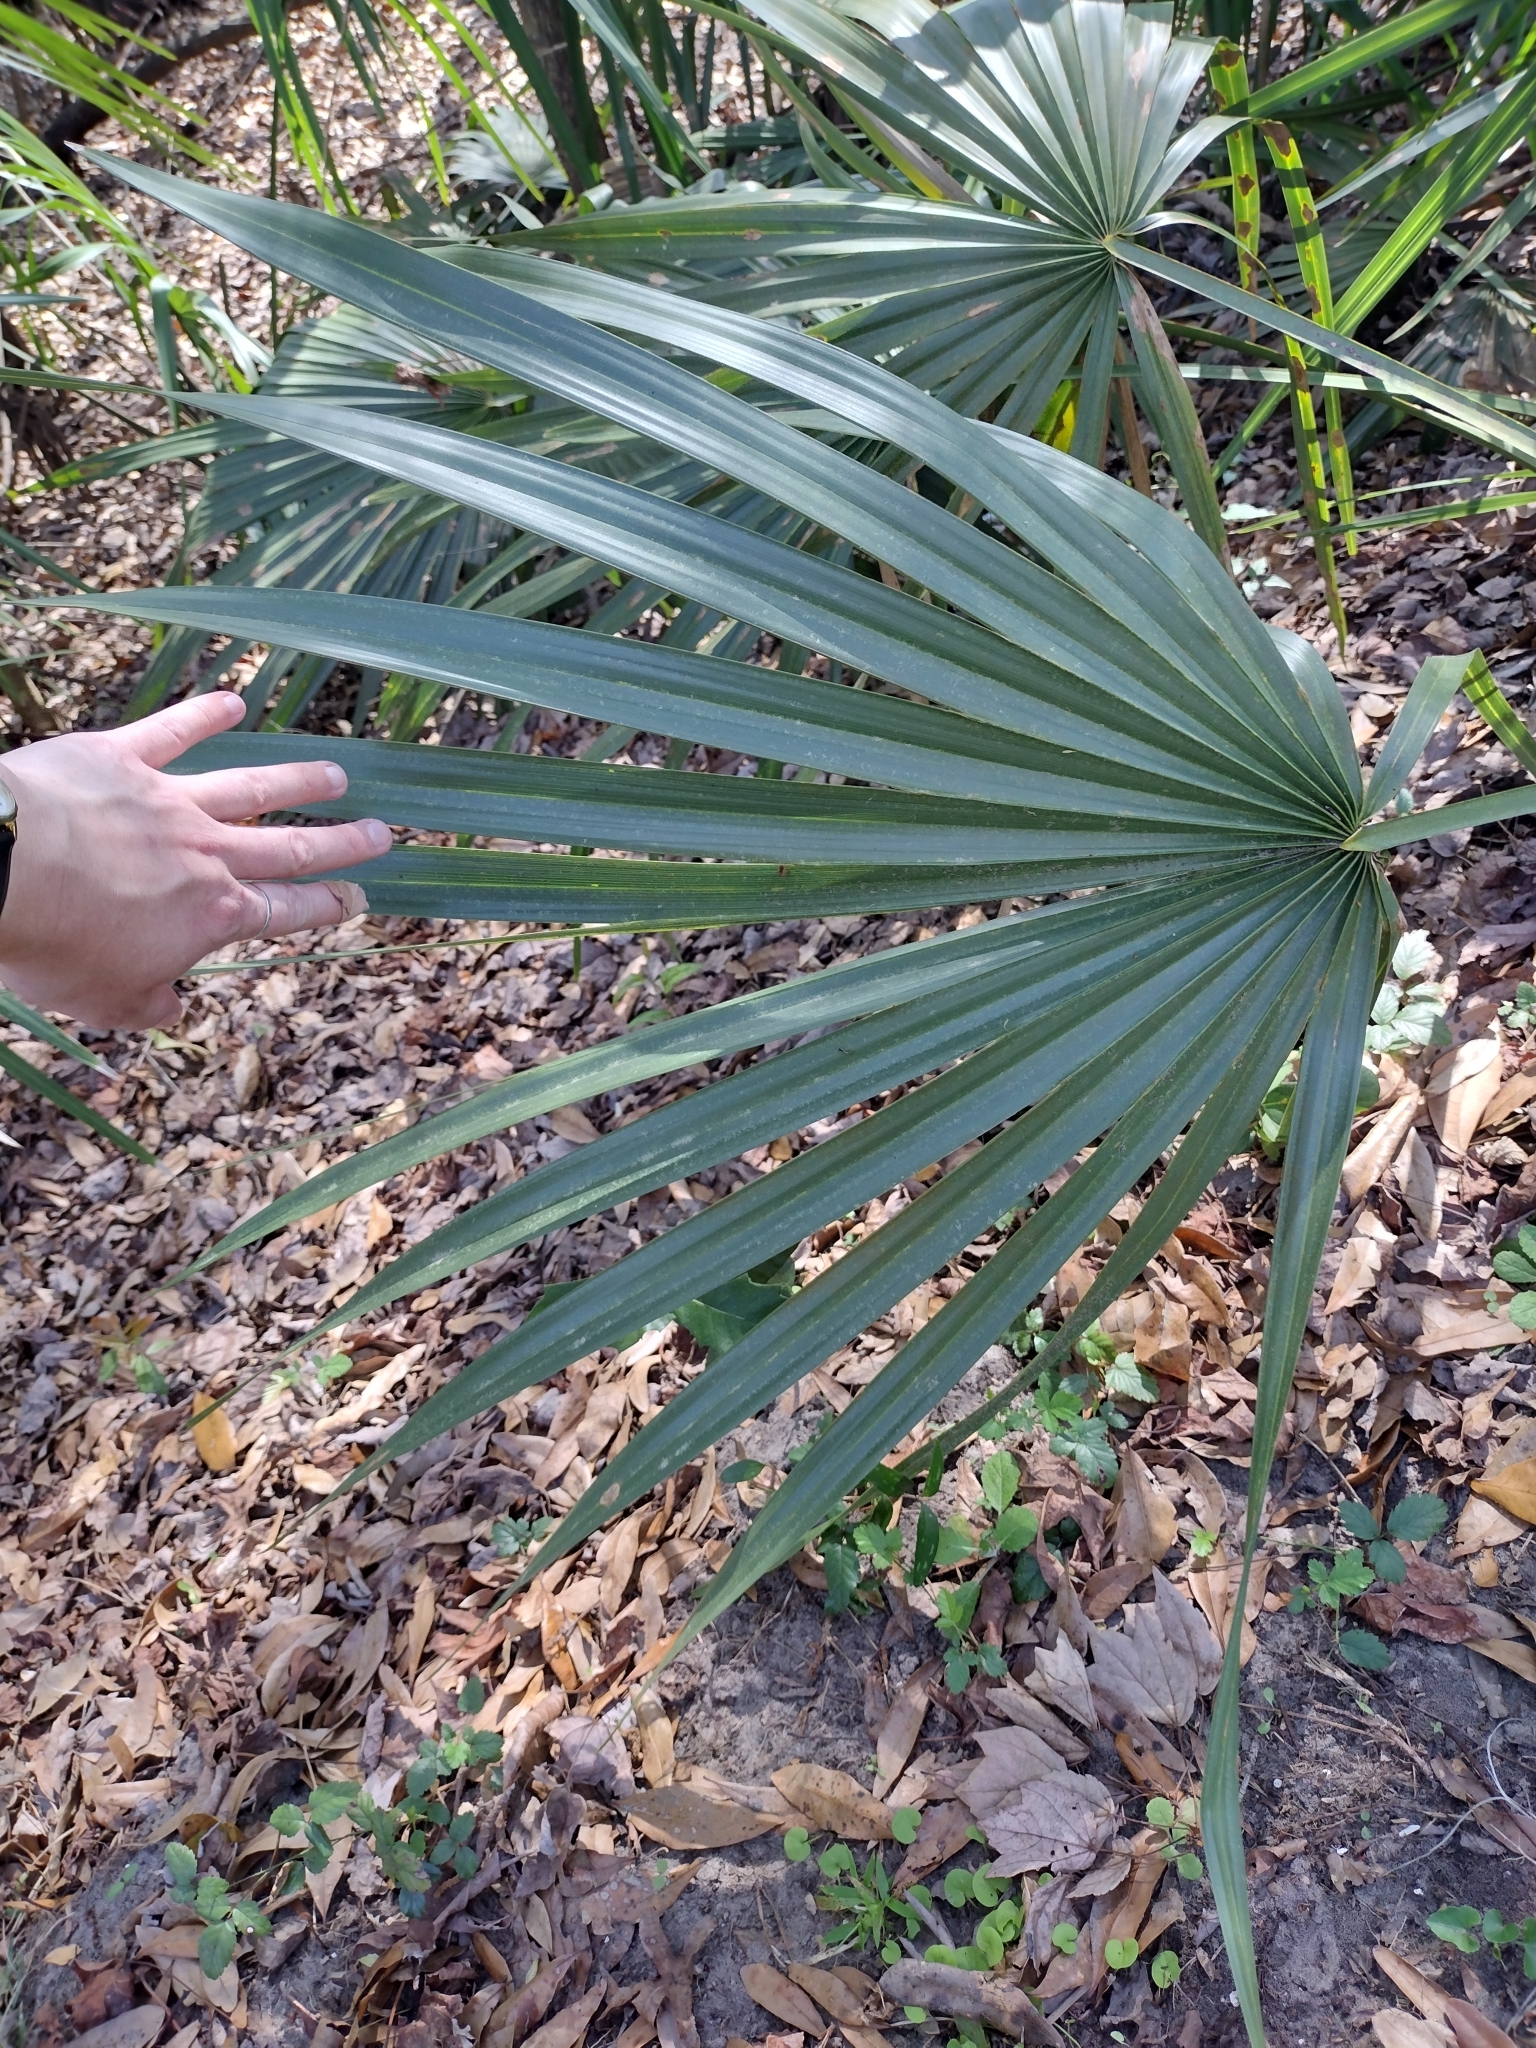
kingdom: Plantae
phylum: Tracheophyta
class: Liliopsida
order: Arecales
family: Arecaceae
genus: Sabal
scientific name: Sabal minor
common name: Dwarf palmetto
